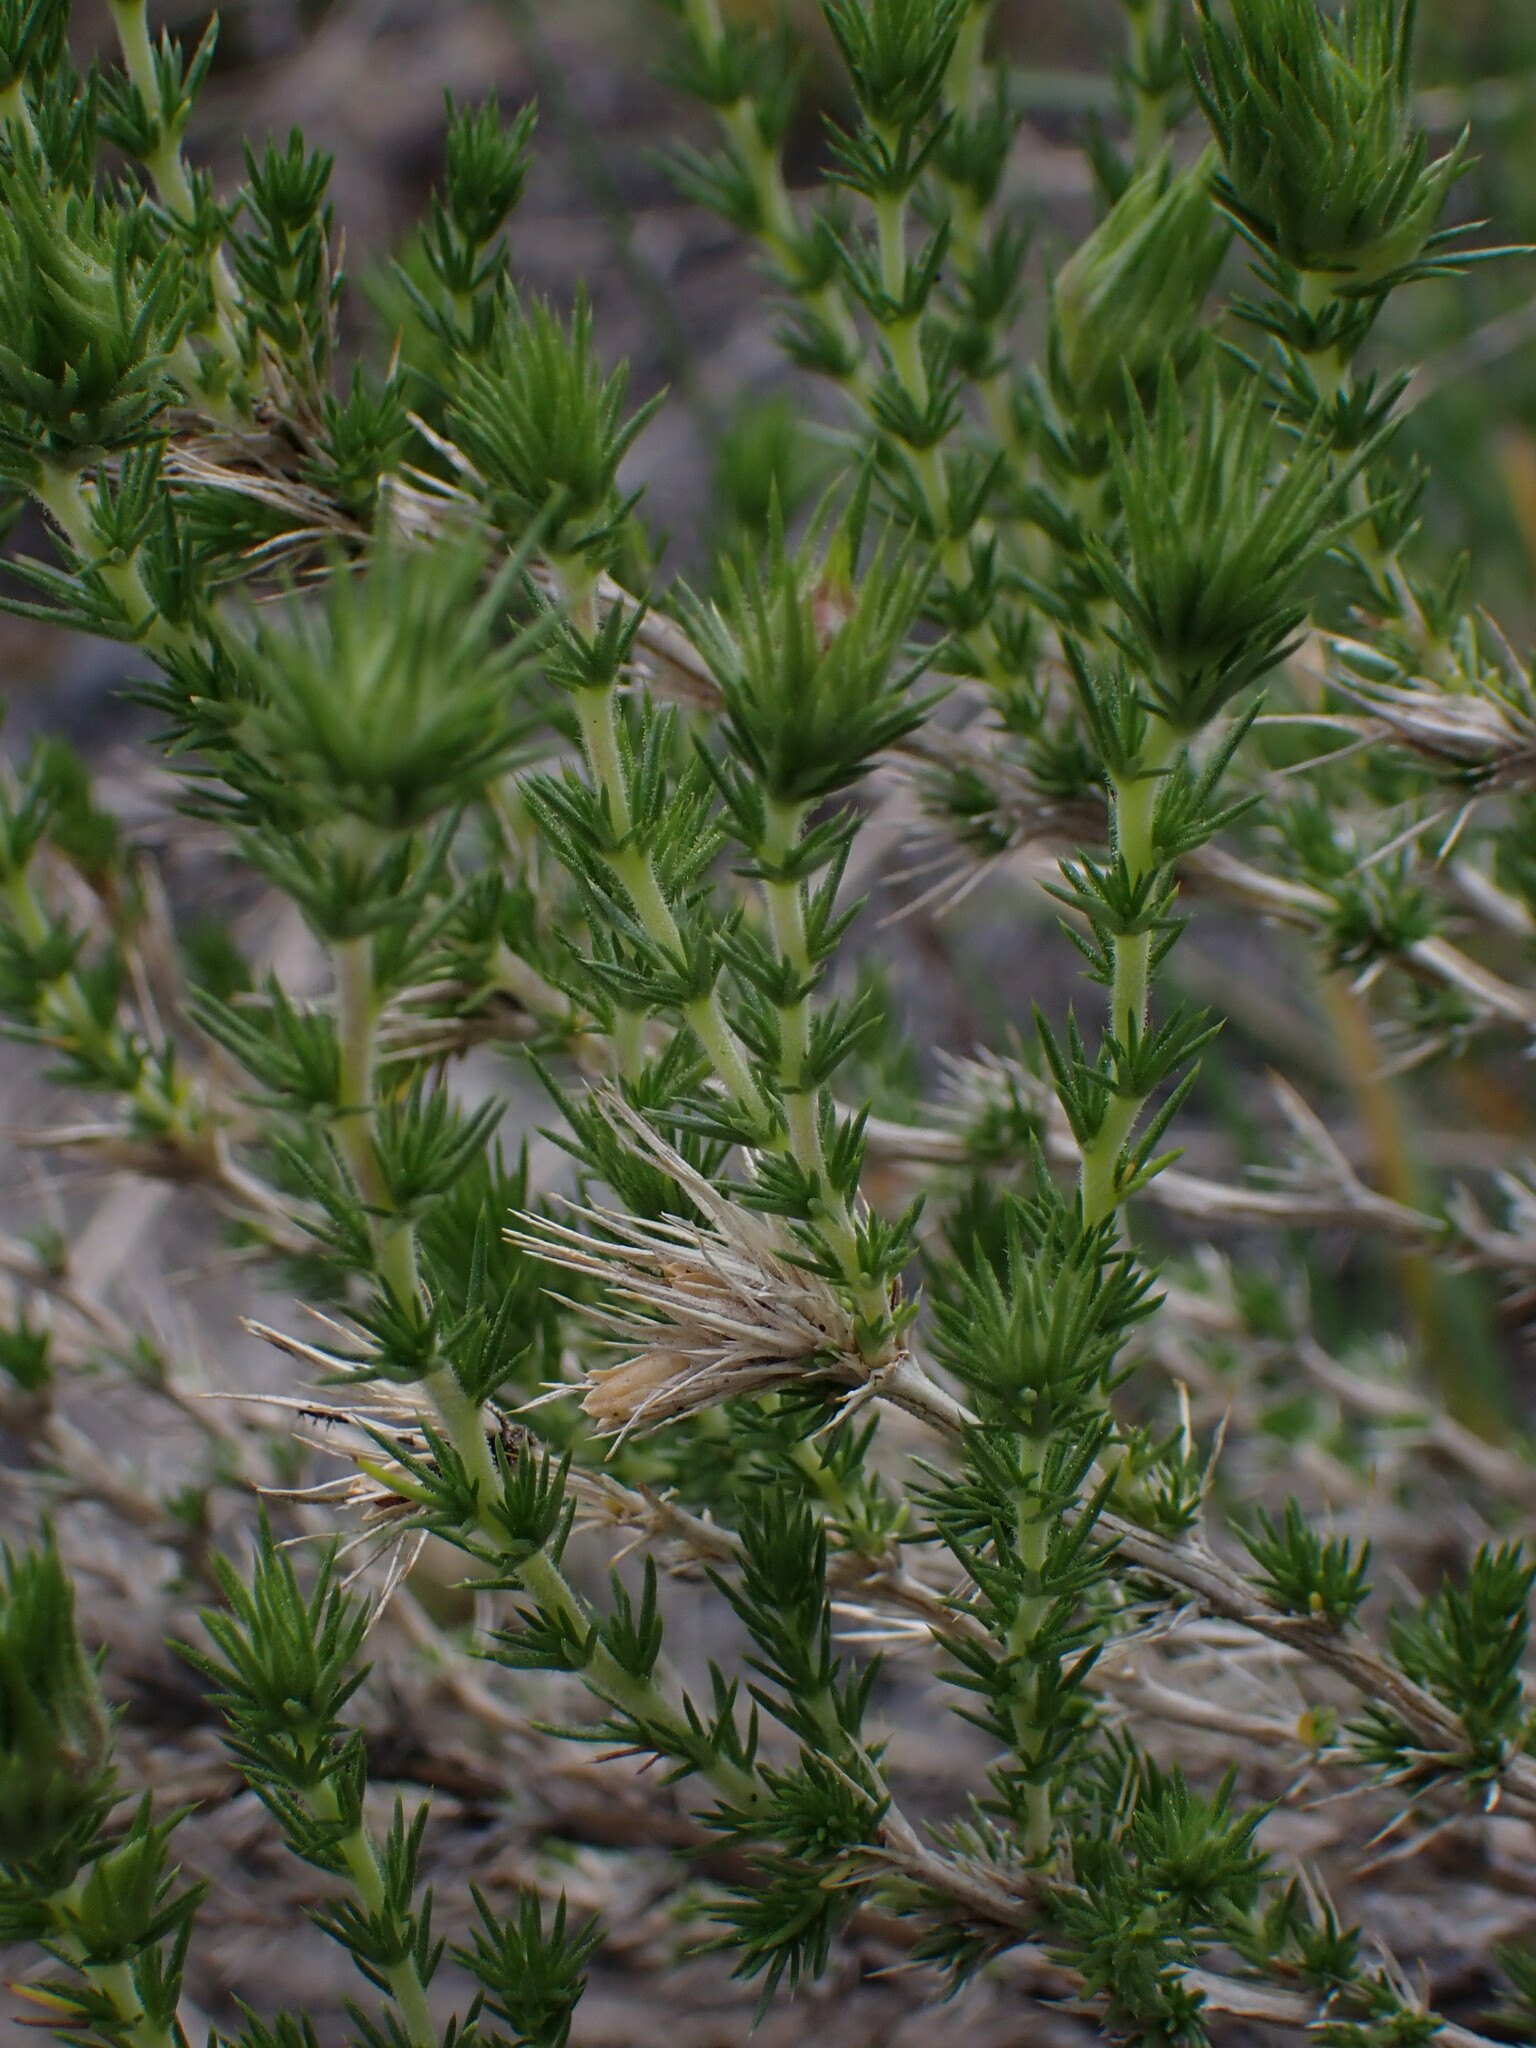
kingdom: Plantae
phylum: Tracheophyta
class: Magnoliopsida
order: Ericales
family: Polemoniaceae
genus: Linanthus
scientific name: Linanthus pungens
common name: Granite prickly phlox
